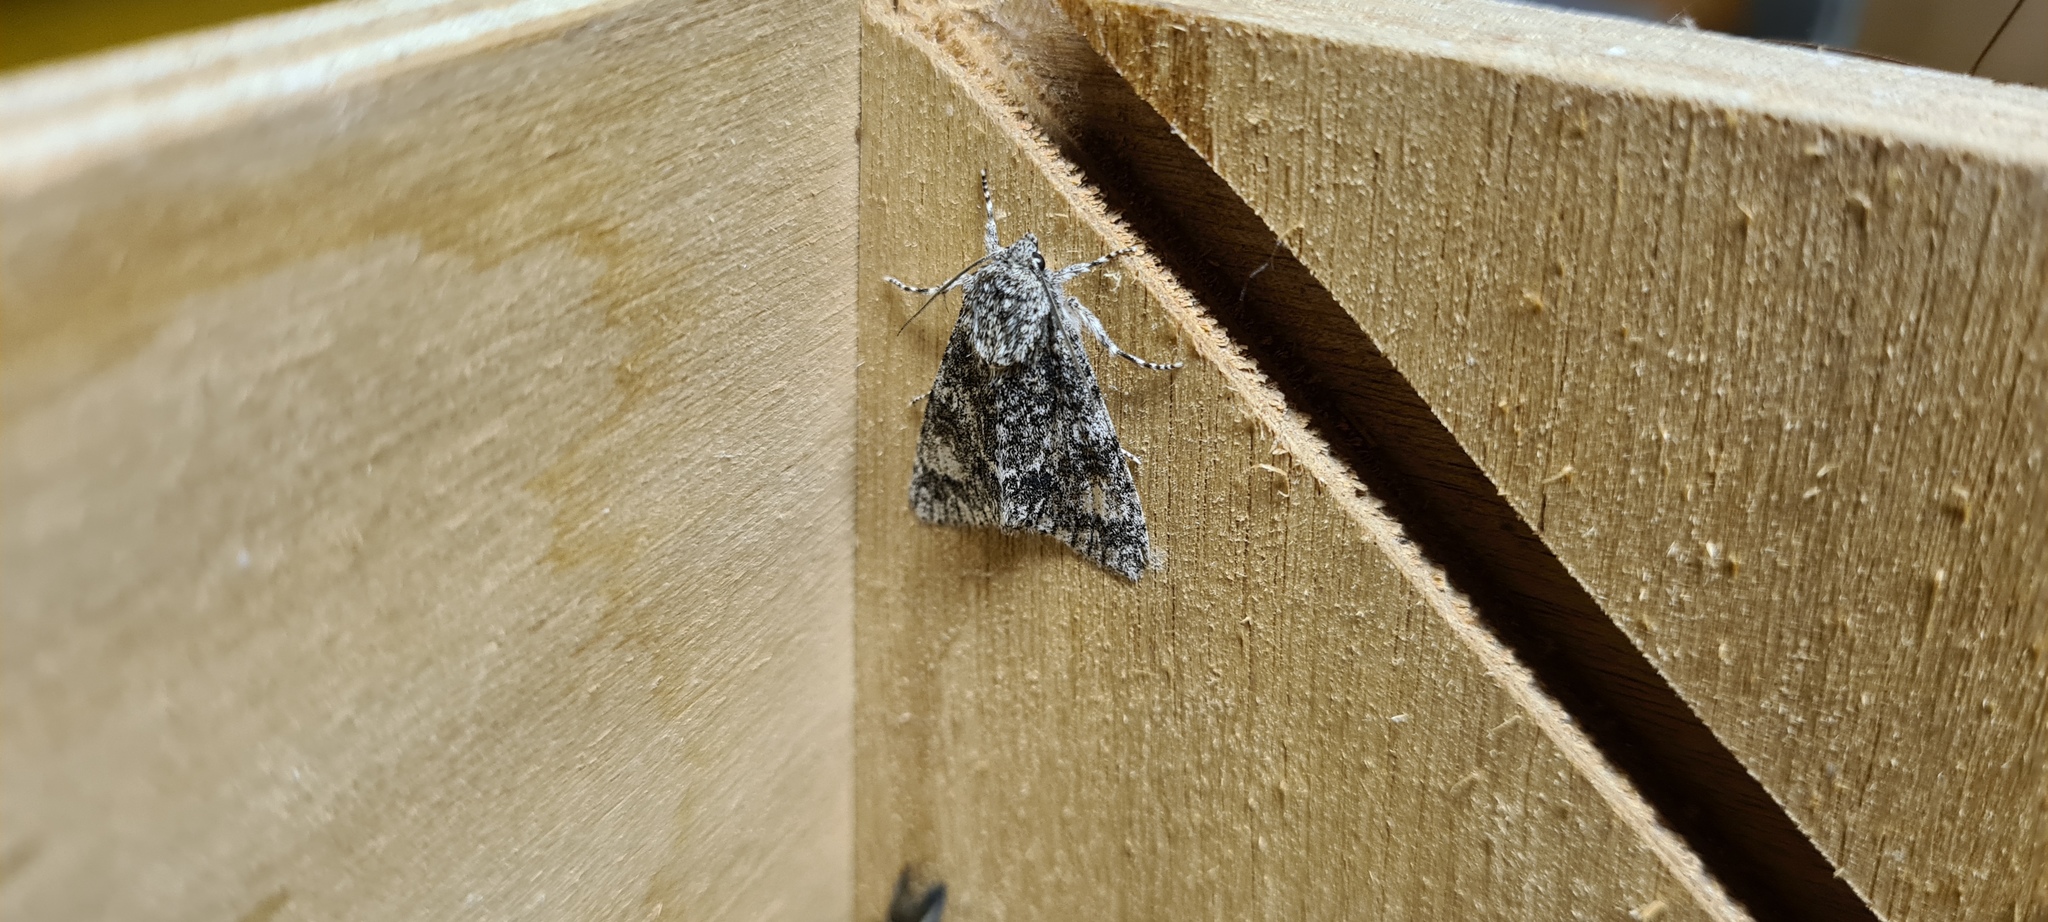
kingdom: Animalia
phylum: Arthropoda
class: Insecta
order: Lepidoptera
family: Noctuidae
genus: Acronicta
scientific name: Acronicta megacephala
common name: Poplar grey
